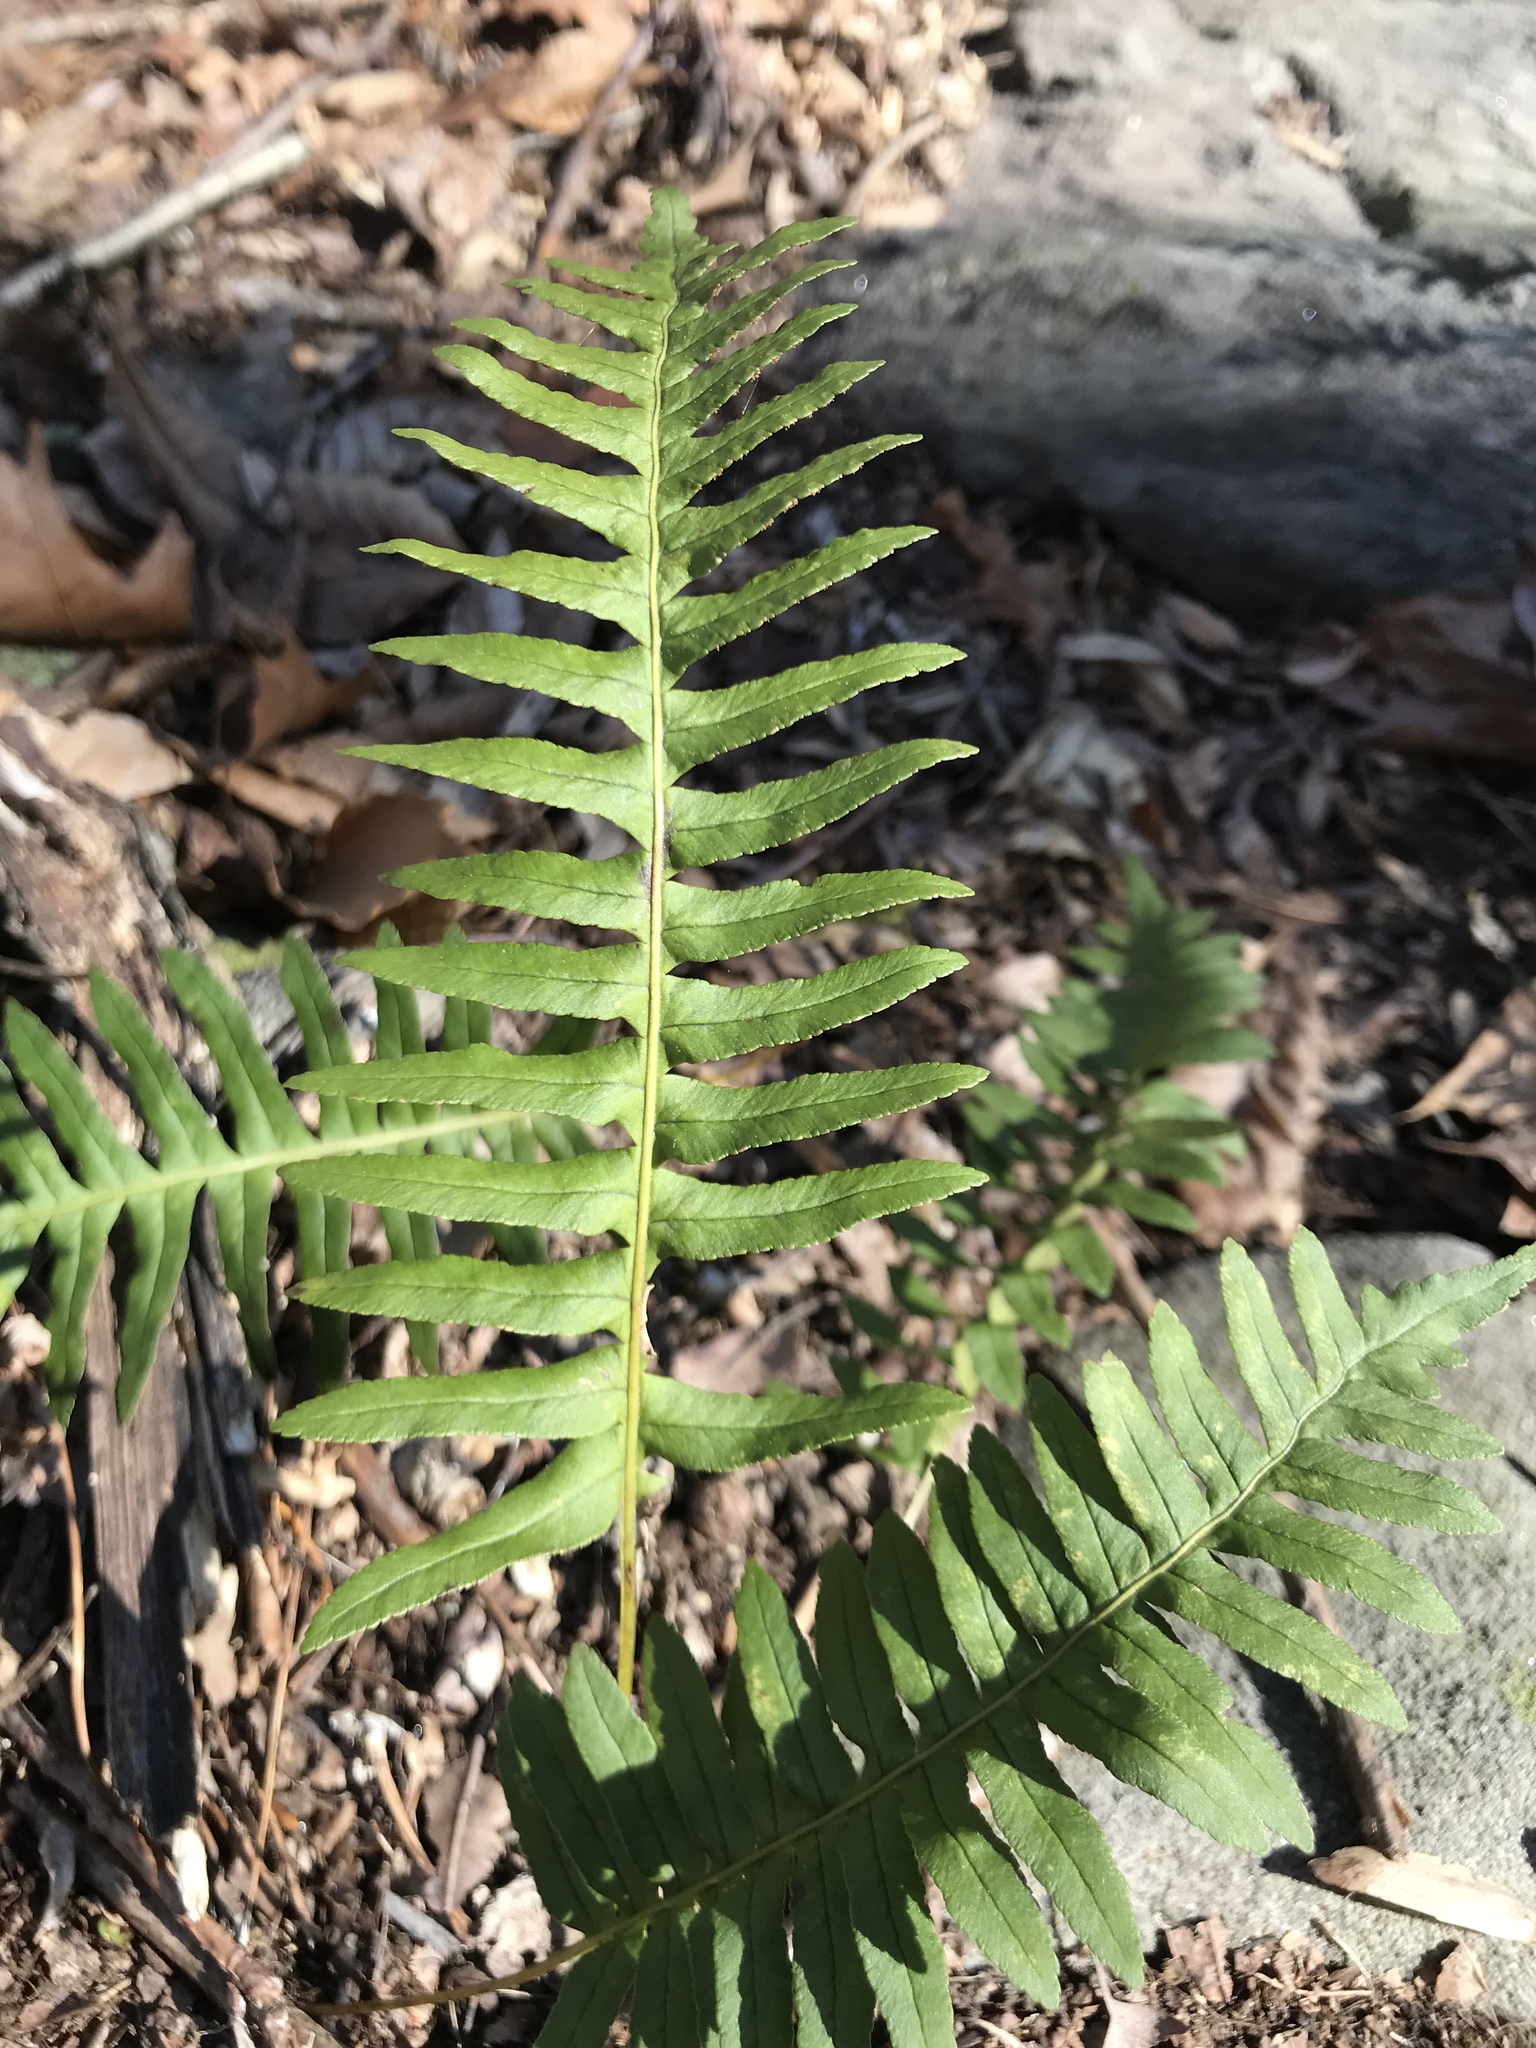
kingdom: Plantae
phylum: Tracheophyta
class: Polypodiopsida
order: Polypodiales
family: Polypodiaceae
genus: Polypodium
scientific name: Polypodium appalachianum
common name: Appalachian polypody
